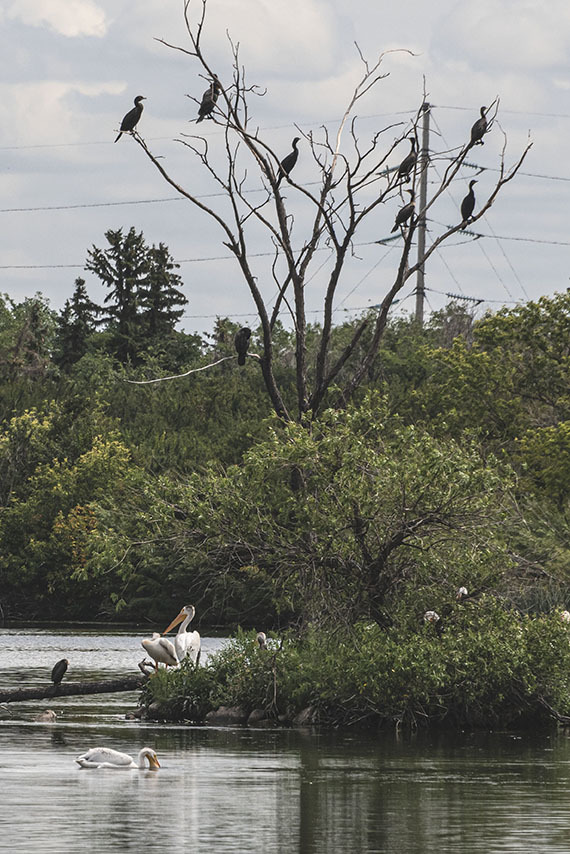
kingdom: Animalia
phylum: Chordata
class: Aves
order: Suliformes
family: Phalacrocoracidae
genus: Phalacrocorax
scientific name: Phalacrocorax auritus
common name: Double-crested cormorant
